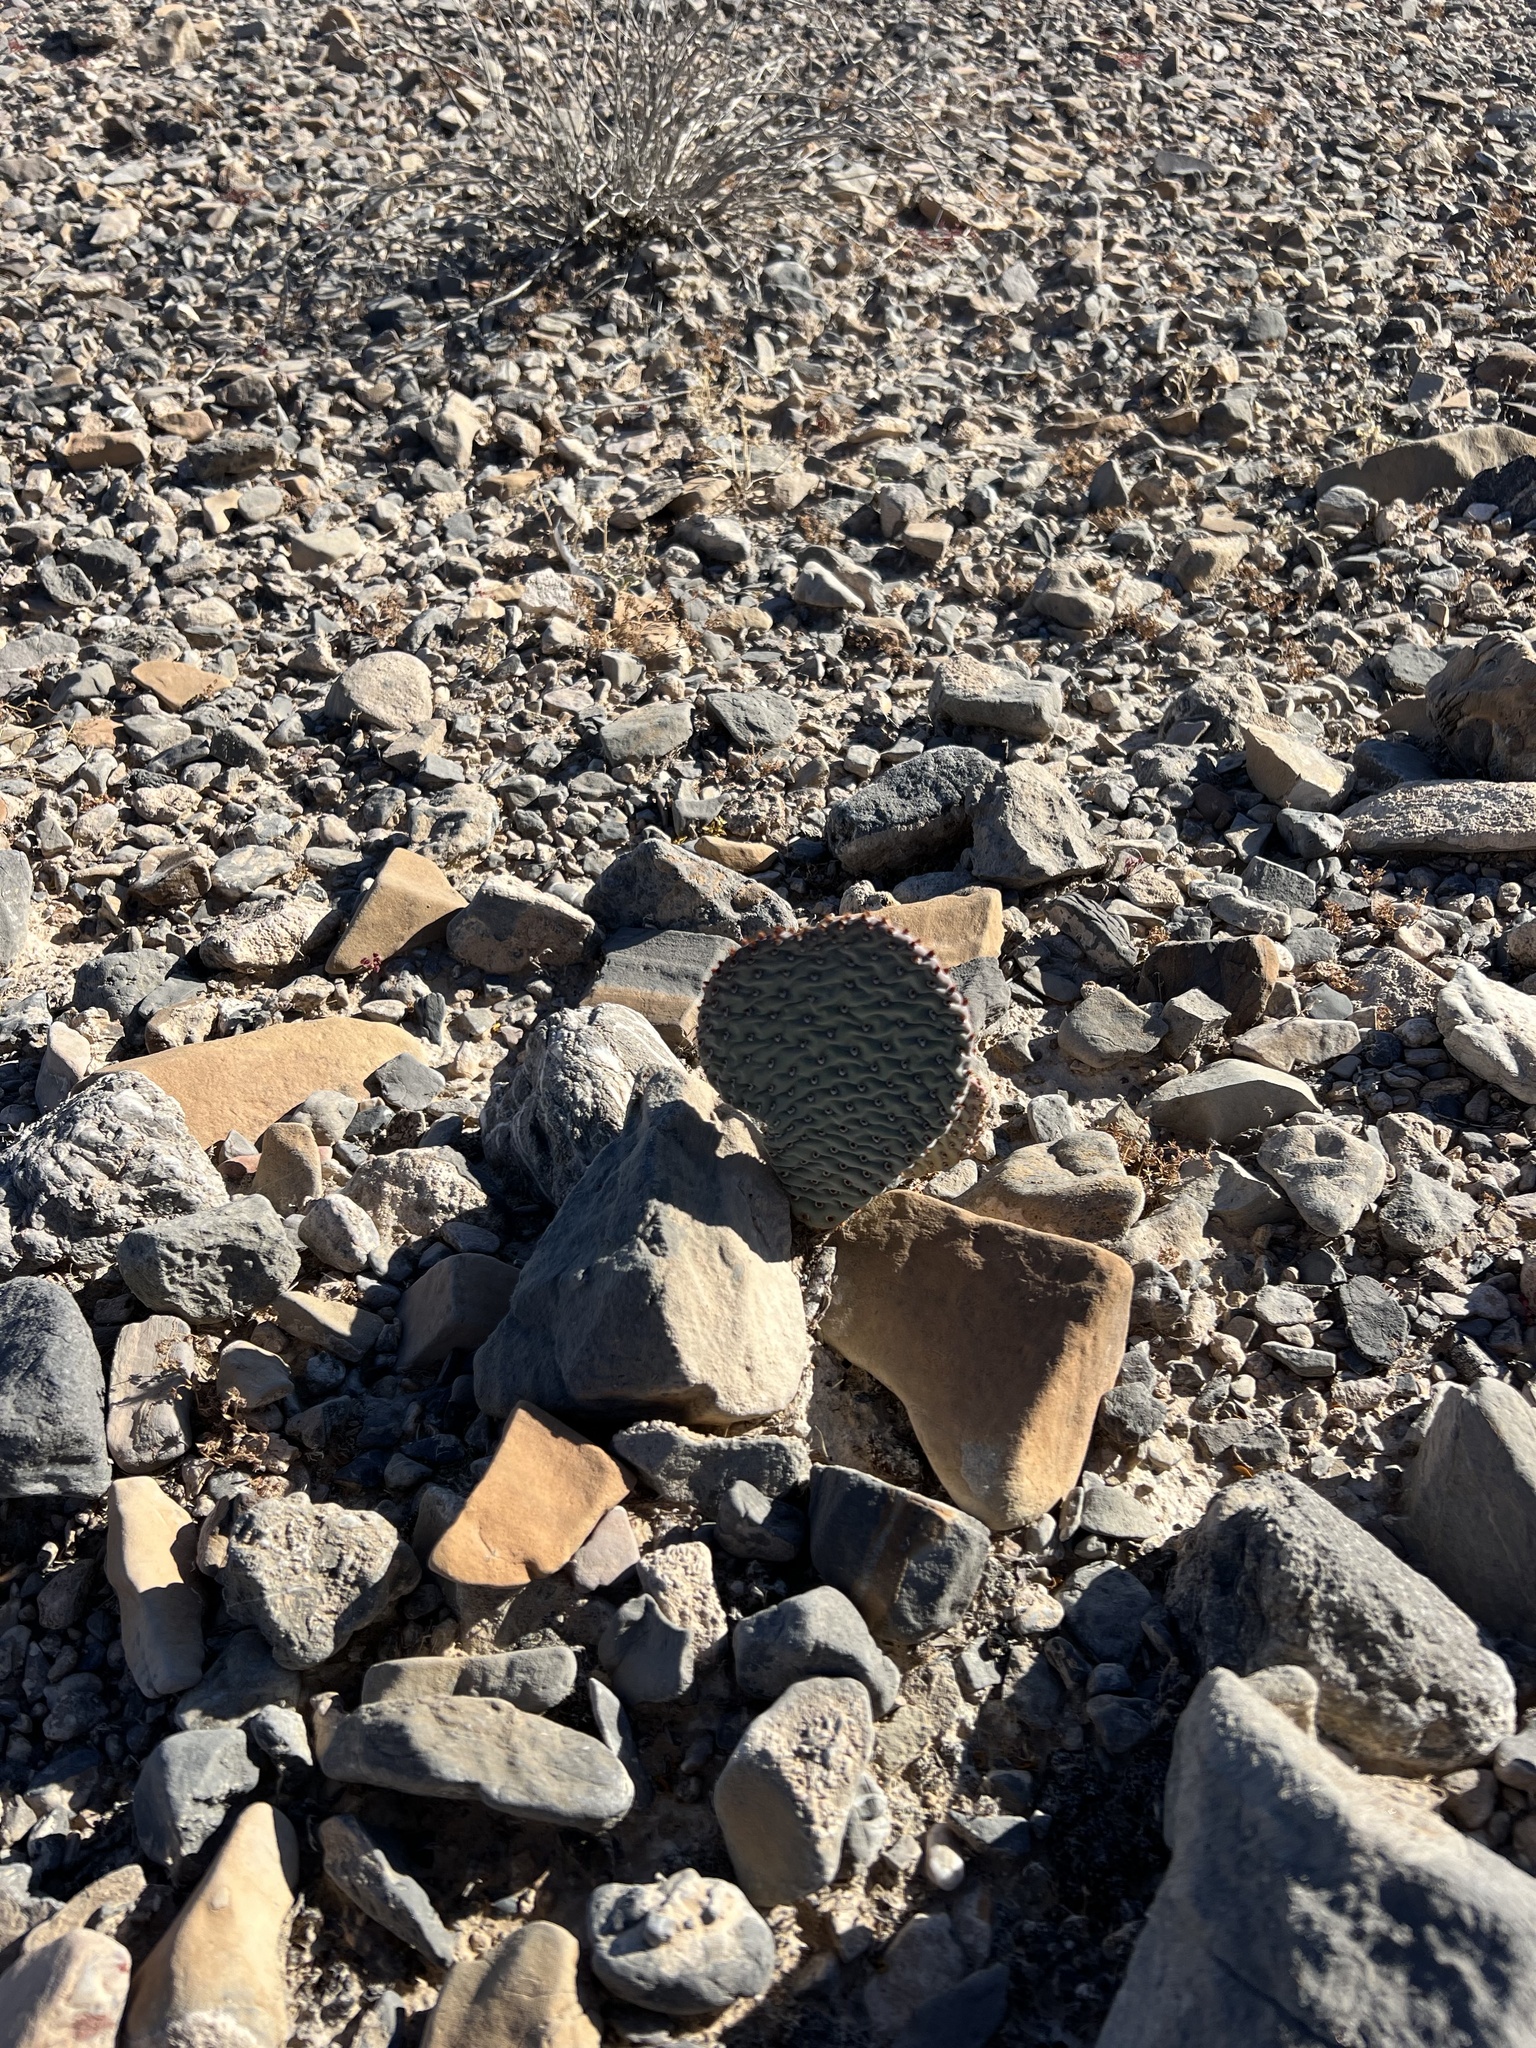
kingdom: Plantae
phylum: Tracheophyta
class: Magnoliopsida
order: Caryophyllales
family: Cactaceae
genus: Opuntia
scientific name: Opuntia basilaris
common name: Beavertail prickly-pear
